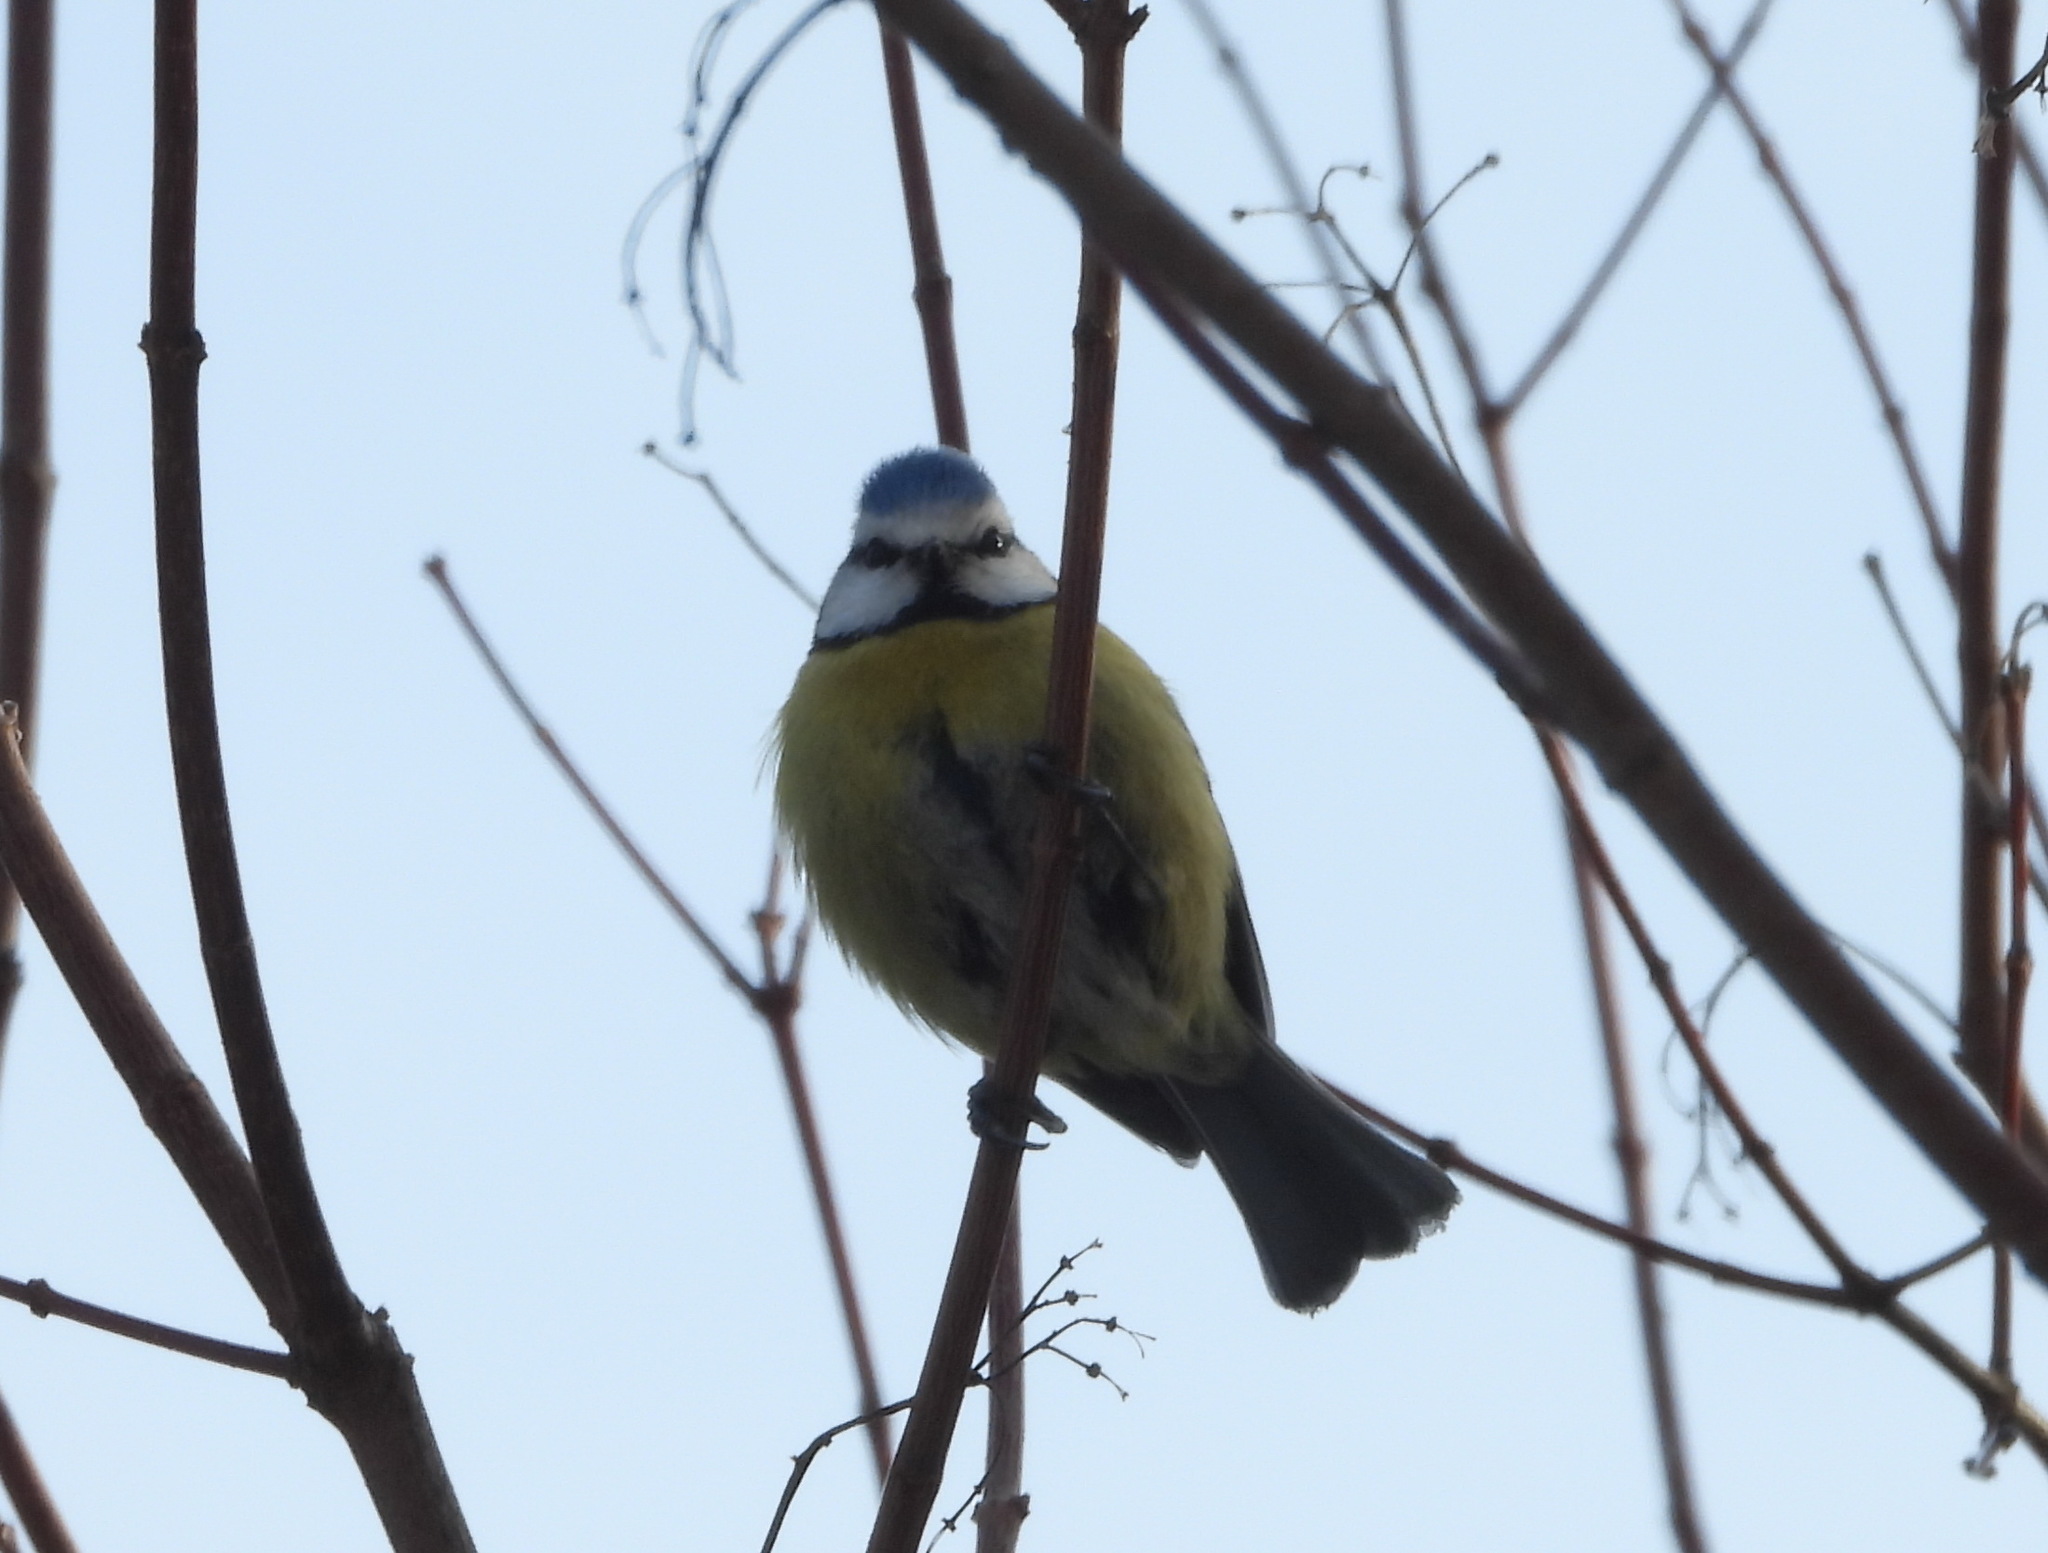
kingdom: Animalia
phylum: Chordata
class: Aves
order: Passeriformes
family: Paridae
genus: Cyanistes
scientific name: Cyanistes caeruleus
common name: Eurasian blue tit
